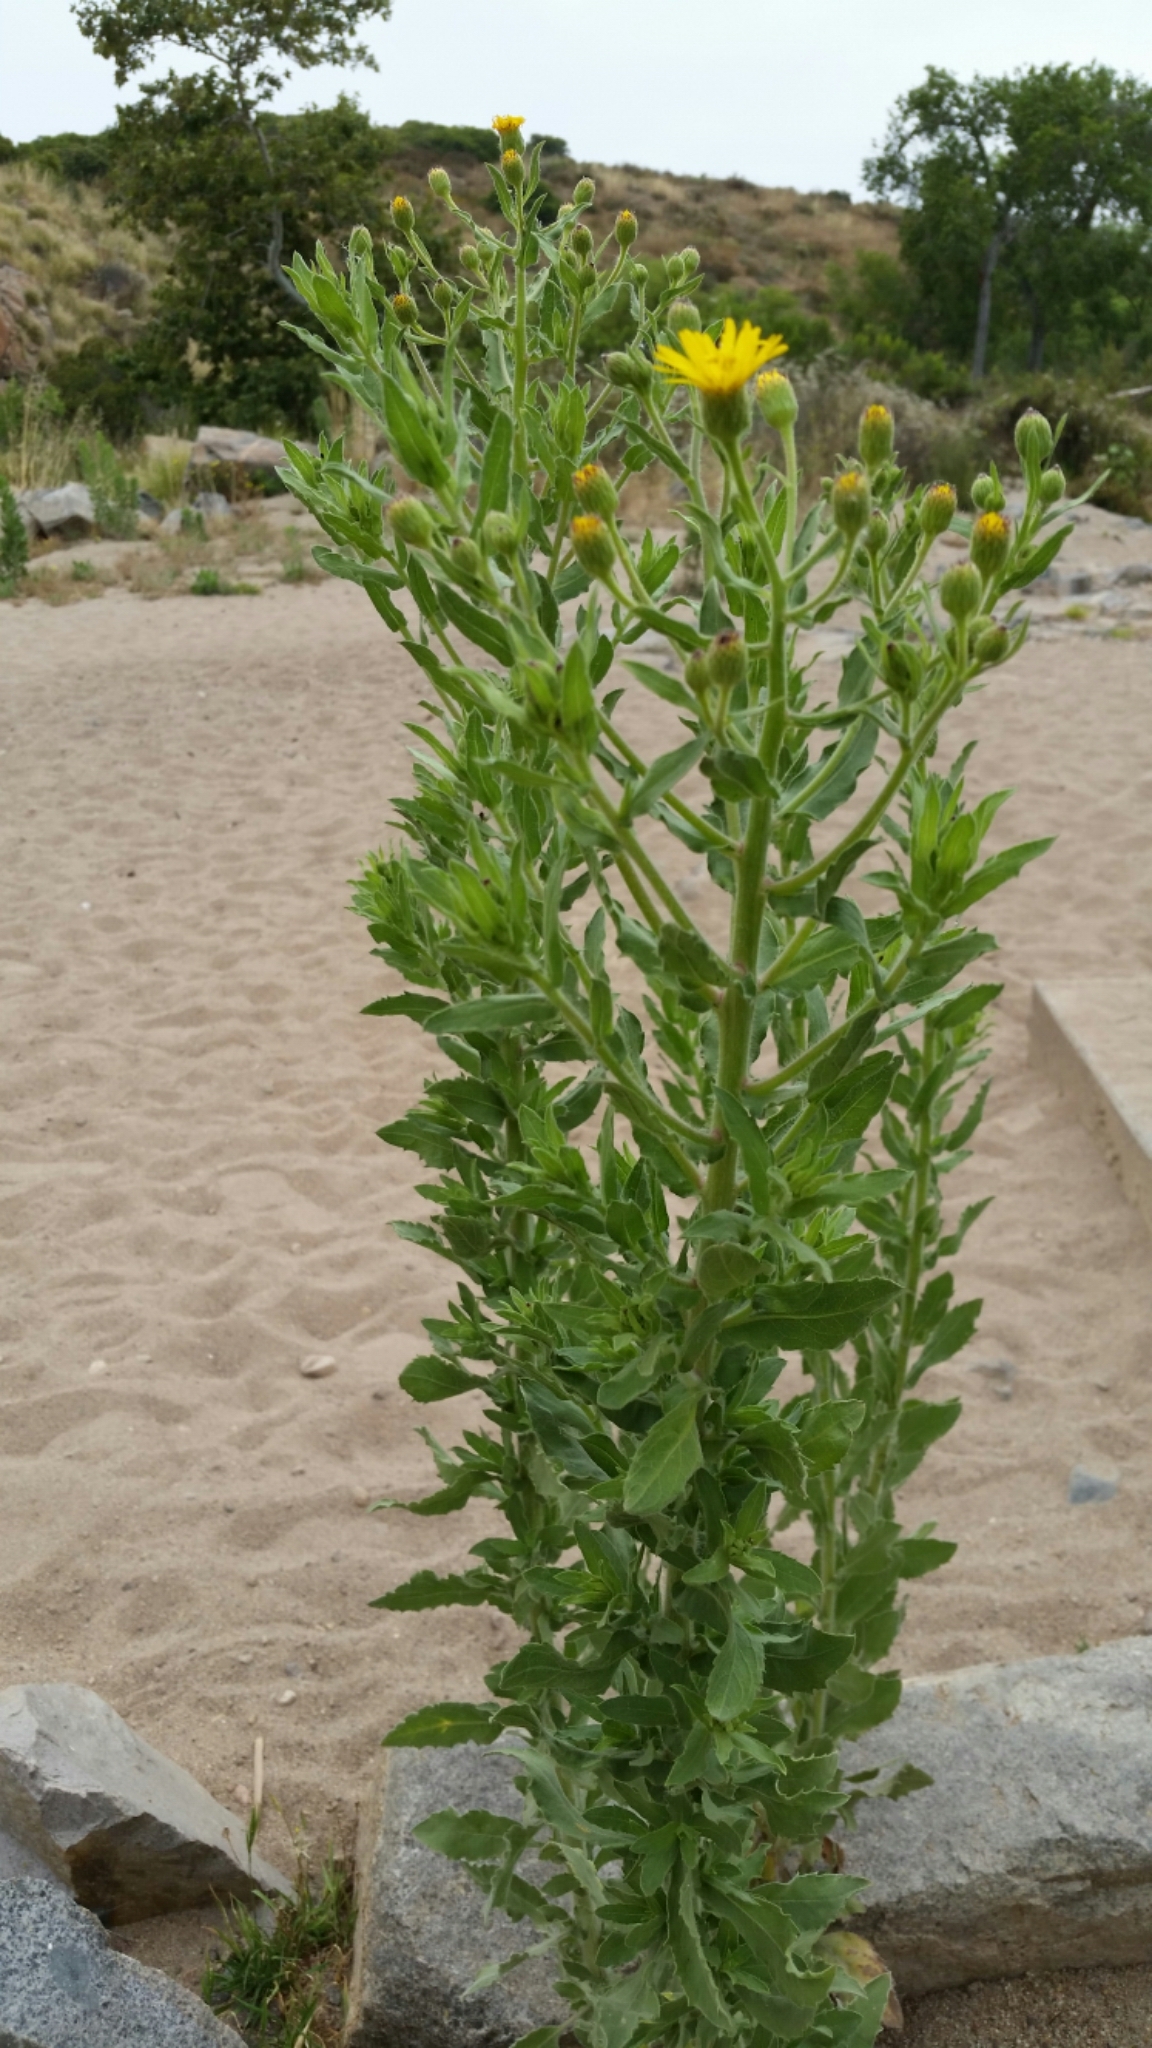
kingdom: Plantae
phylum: Tracheophyta
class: Magnoliopsida
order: Asterales
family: Asteraceae
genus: Heterotheca
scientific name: Heterotheca grandiflora
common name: Telegraphweed
